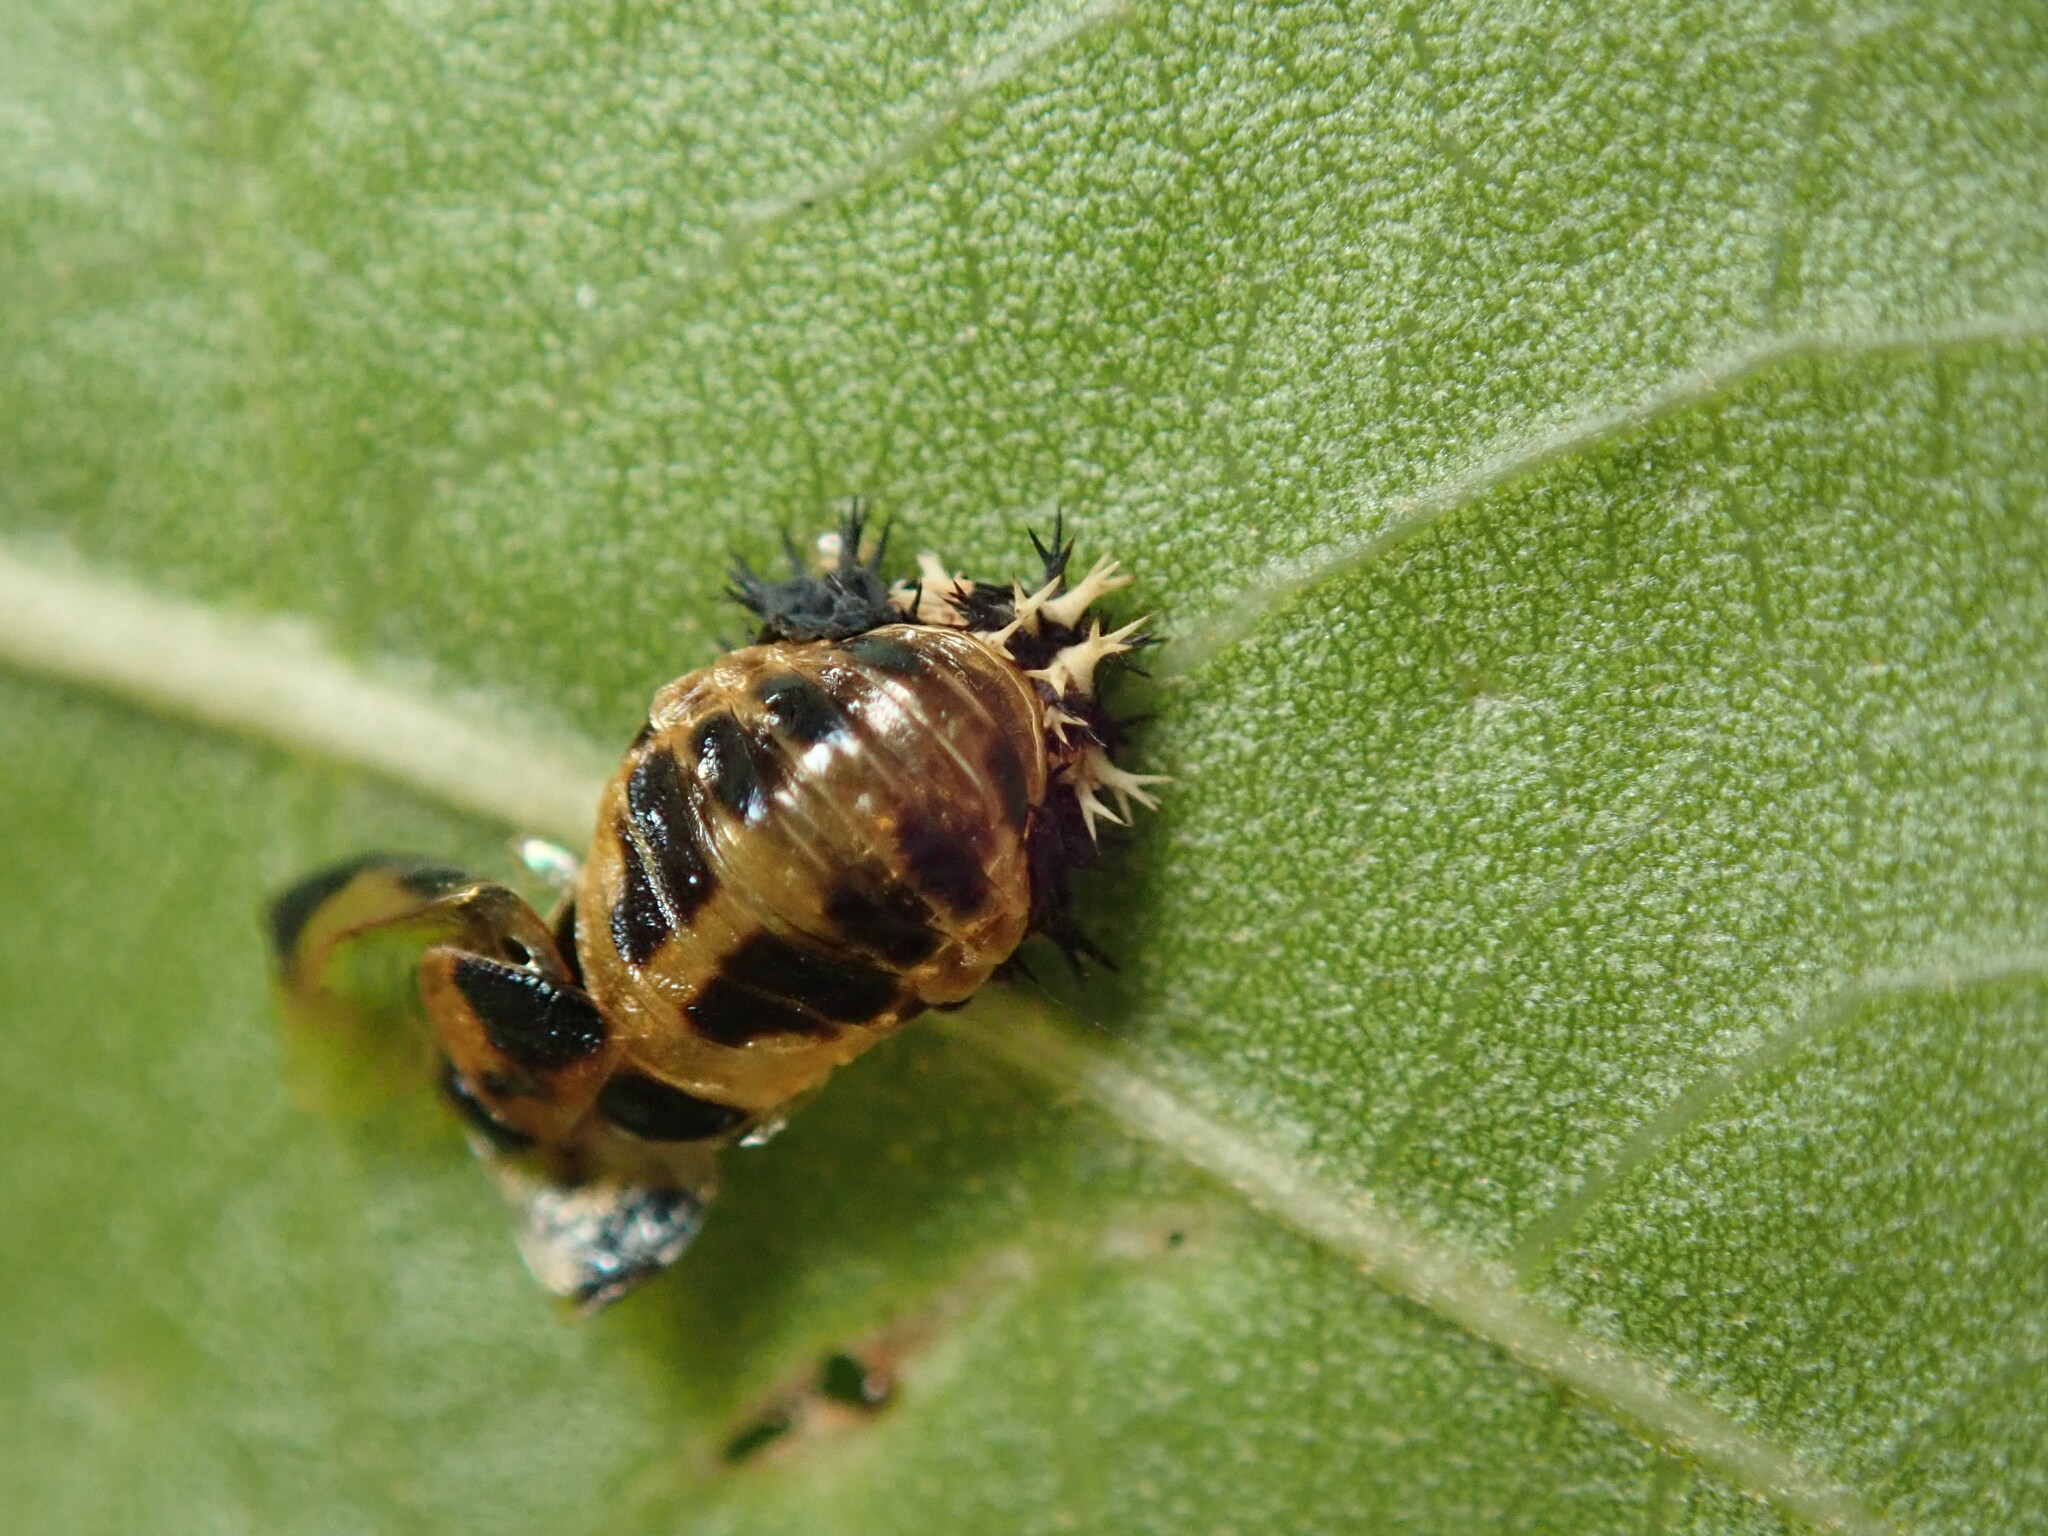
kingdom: Animalia
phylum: Arthropoda
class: Insecta
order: Coleoptera
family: Coccinellidae
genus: Harmonia
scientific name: Harmonia axyridis
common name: Harlequin ladybird
